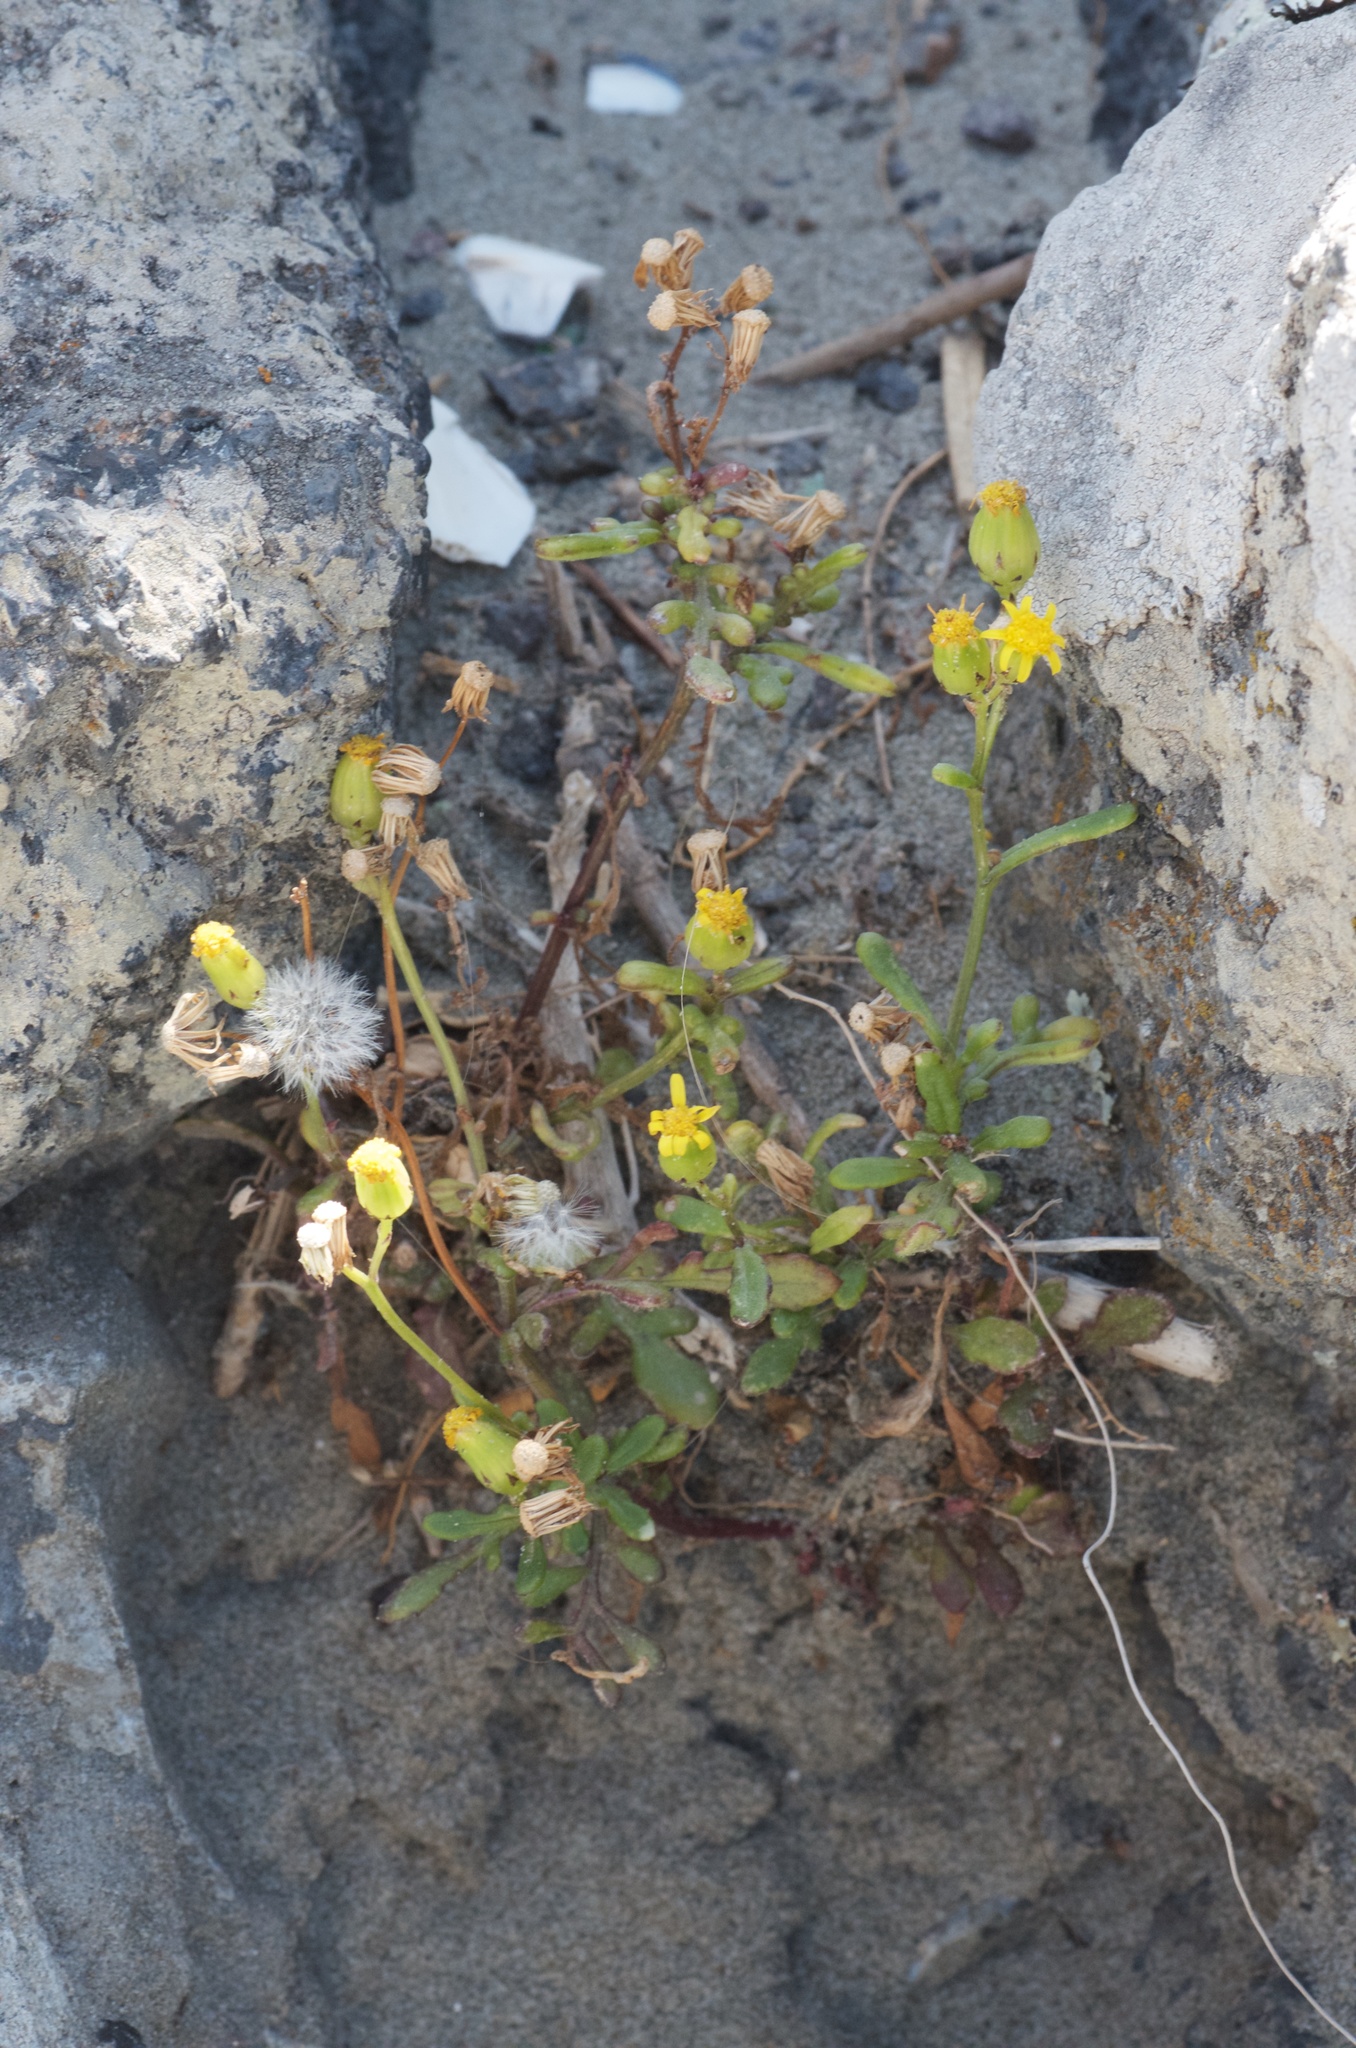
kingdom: Plantae
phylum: Tracheophyta
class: Magnoliopsida
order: Asterales
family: Asteraceae
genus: Senecio
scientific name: Senecio lautus
